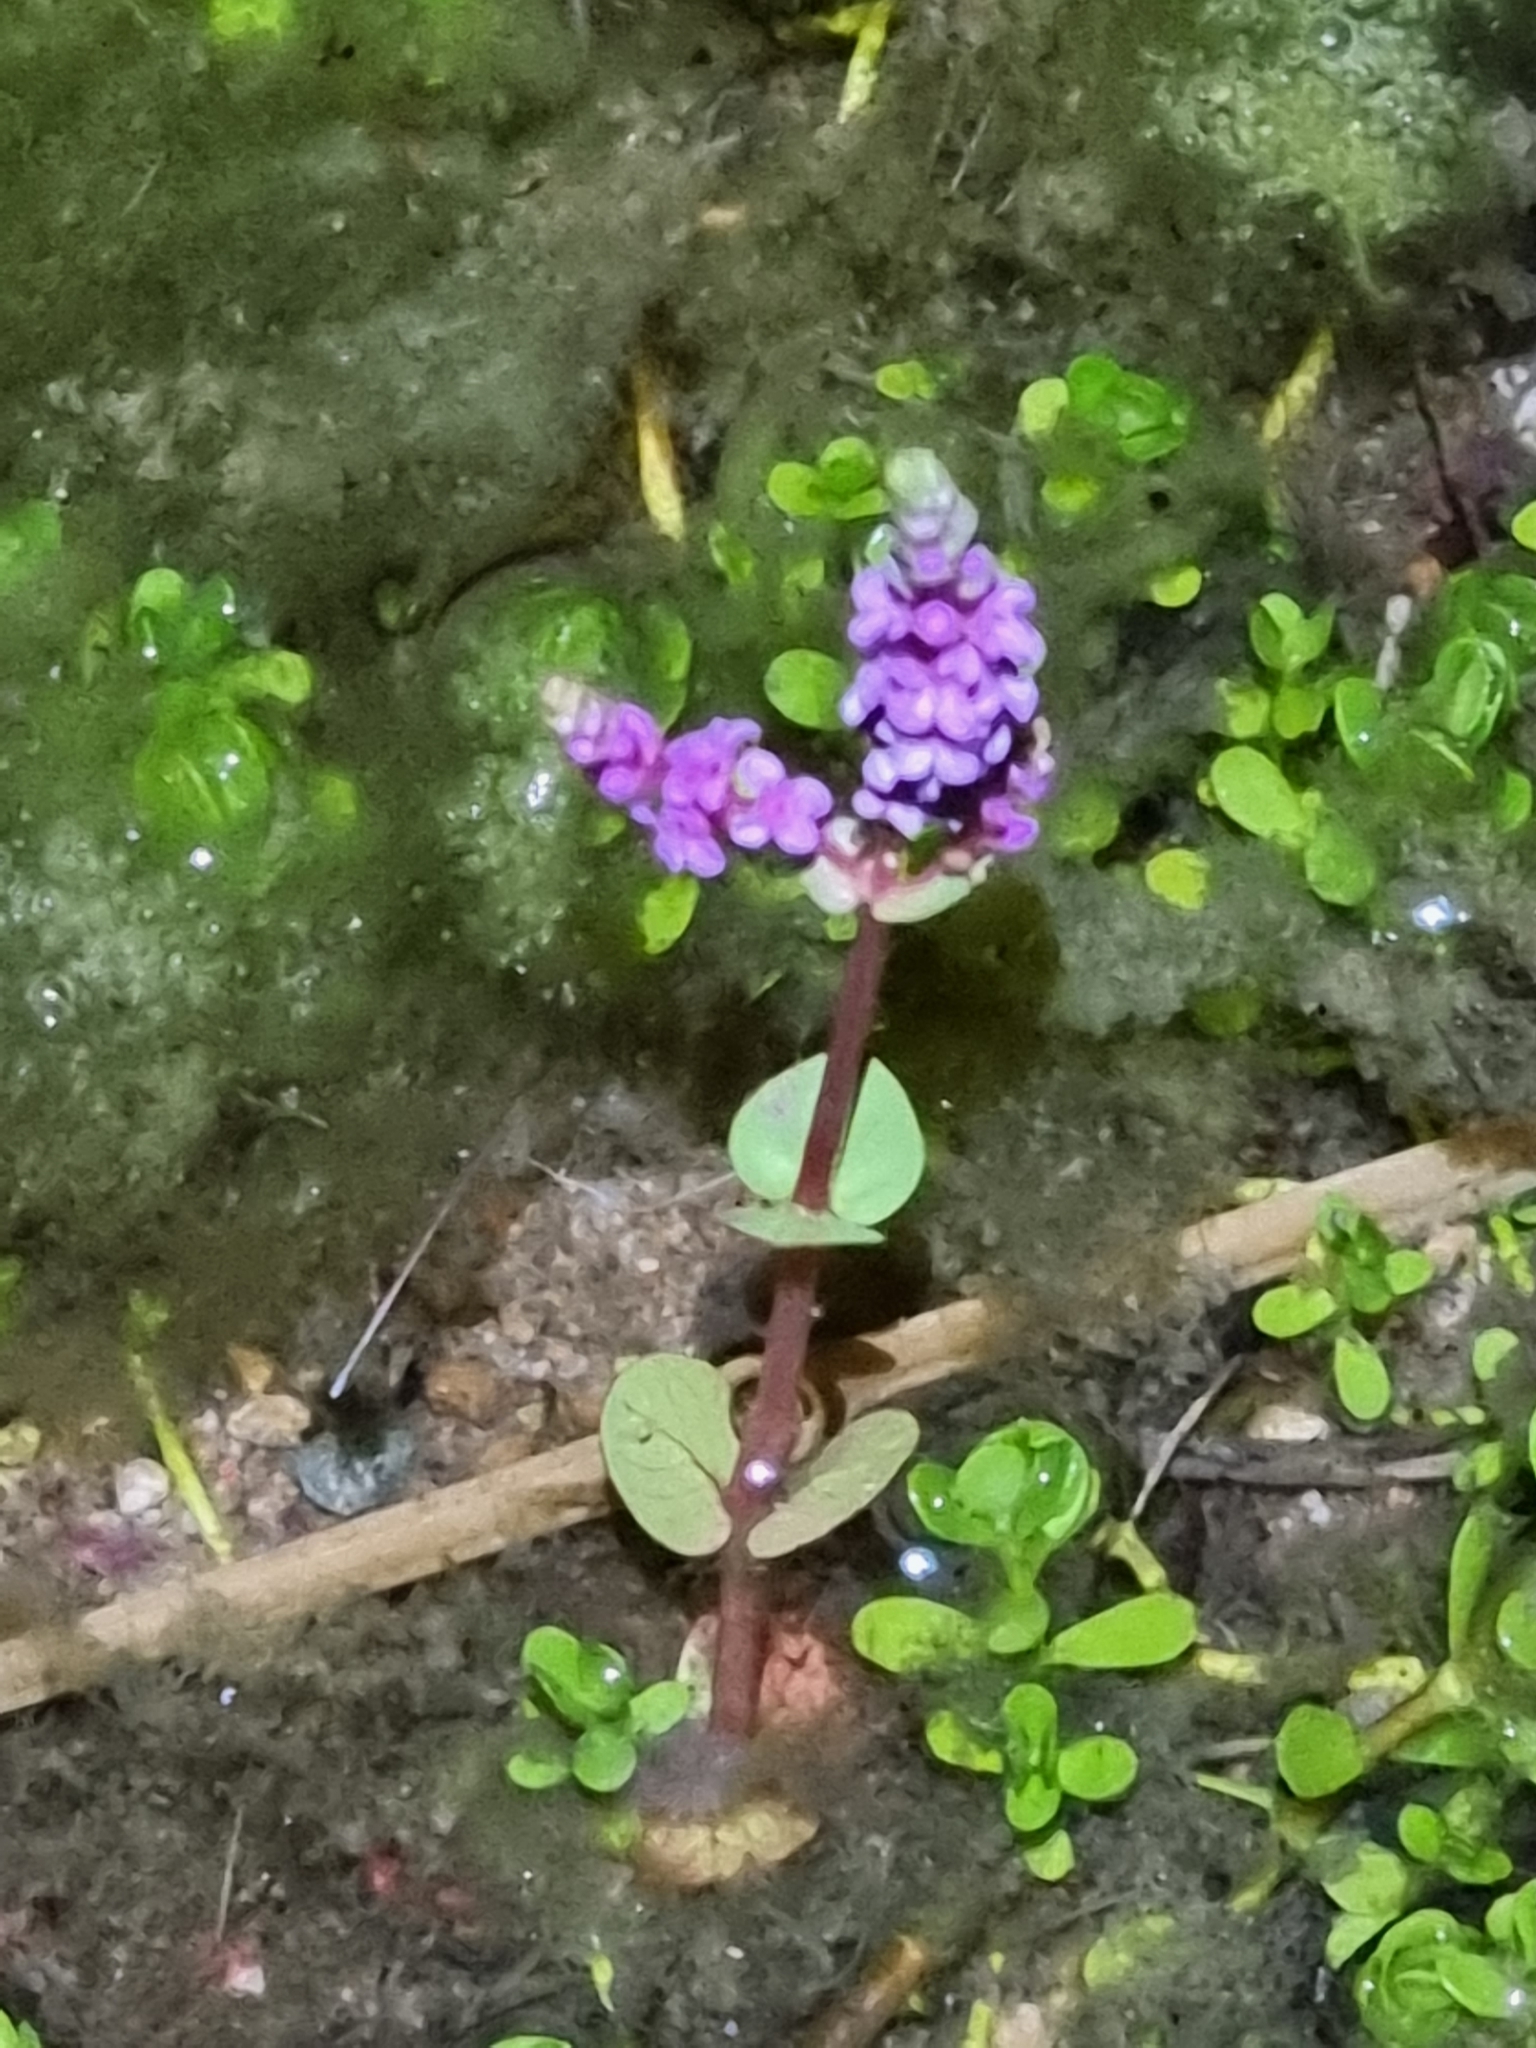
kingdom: Plantae
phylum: Tracheophyta
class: Magnoliopsida
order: Myrtales
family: Lythraceae
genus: Rotala
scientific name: Rotala rotundifolia
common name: Roundleaf toothcup
